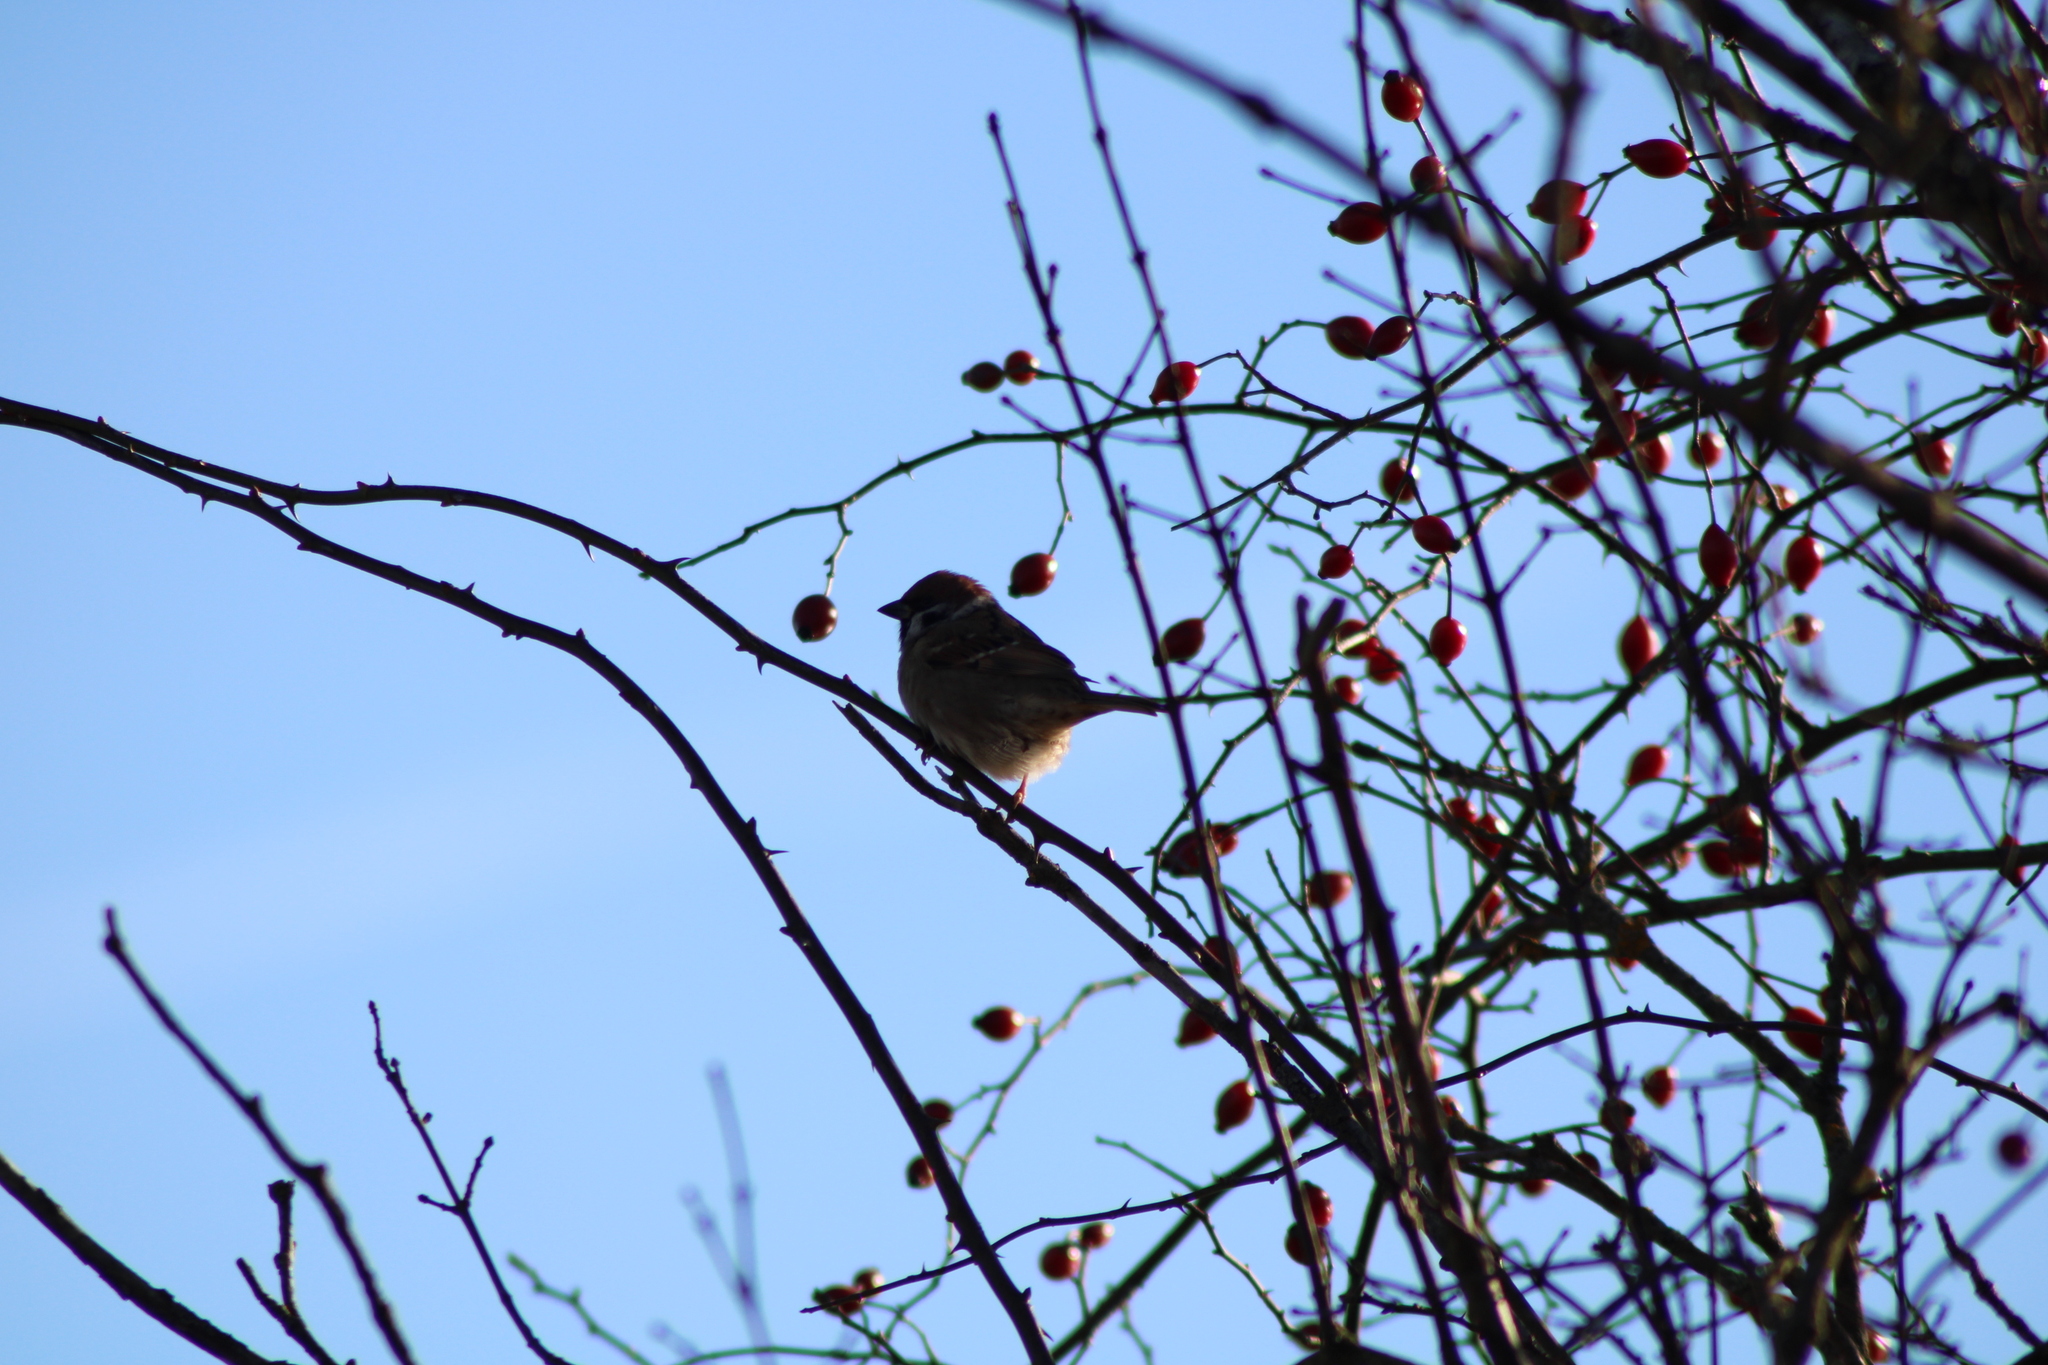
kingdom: Animalia
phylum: Chordata
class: Aves
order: Passeriformes
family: Passeridae
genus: Passer
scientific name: Passer montanus
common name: Eurasian tree sparrow
